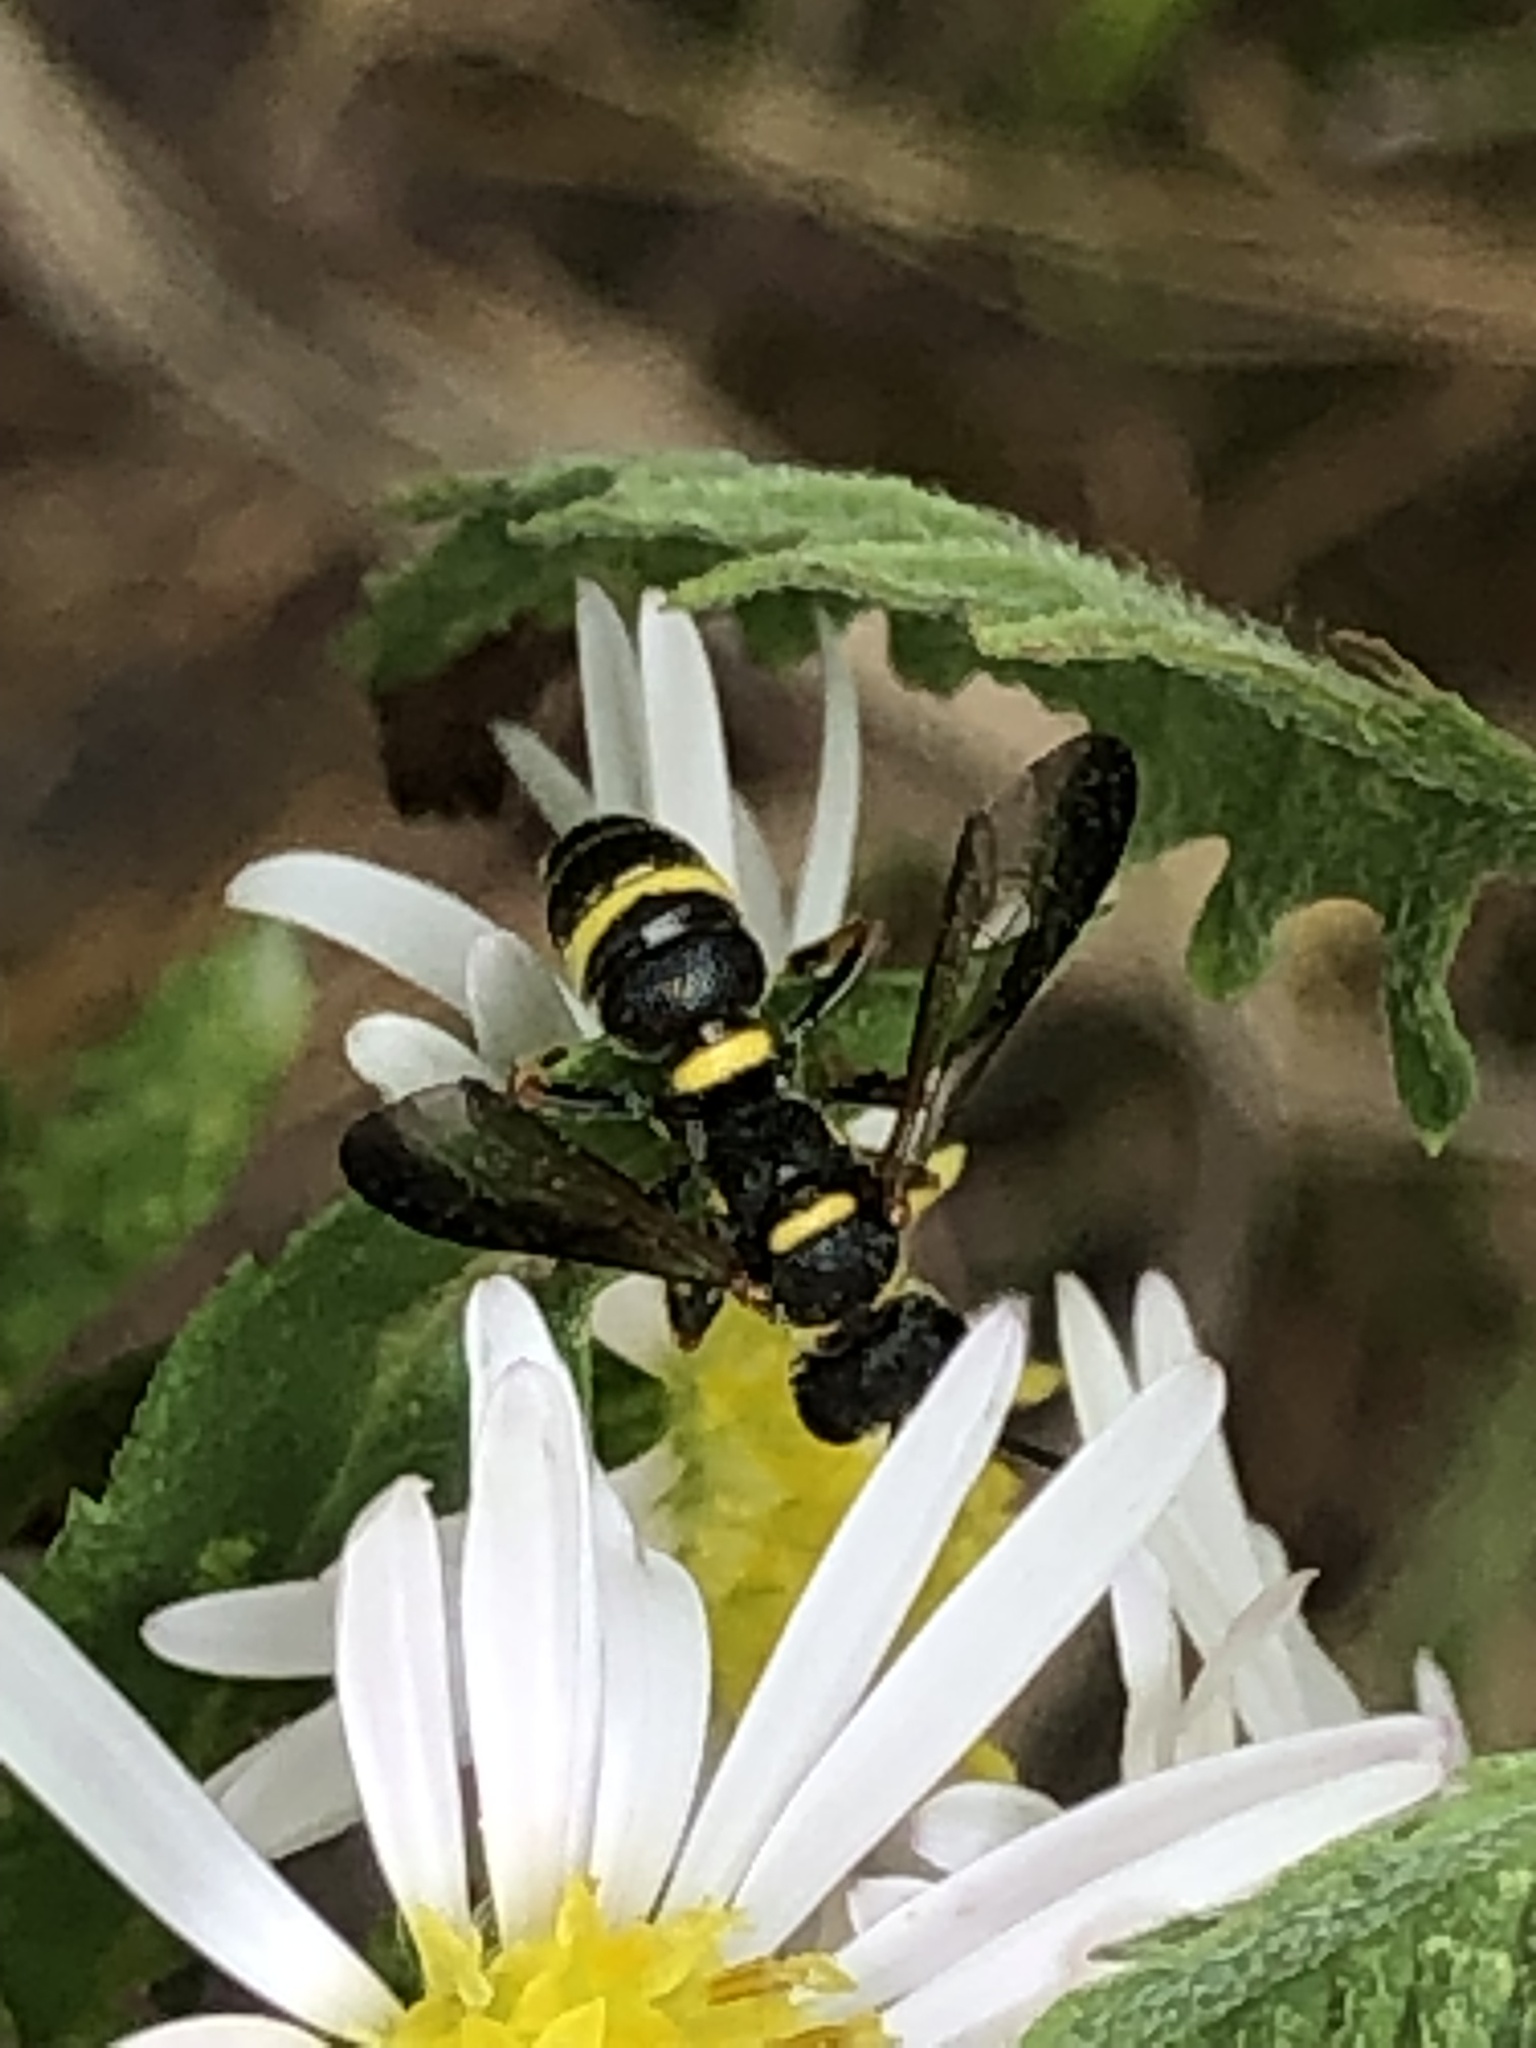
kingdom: Animalia
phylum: Arthropoda
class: Insecta
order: Hymenoptera
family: Crabronidae
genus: Cerceris
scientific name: Cerceris insolita
